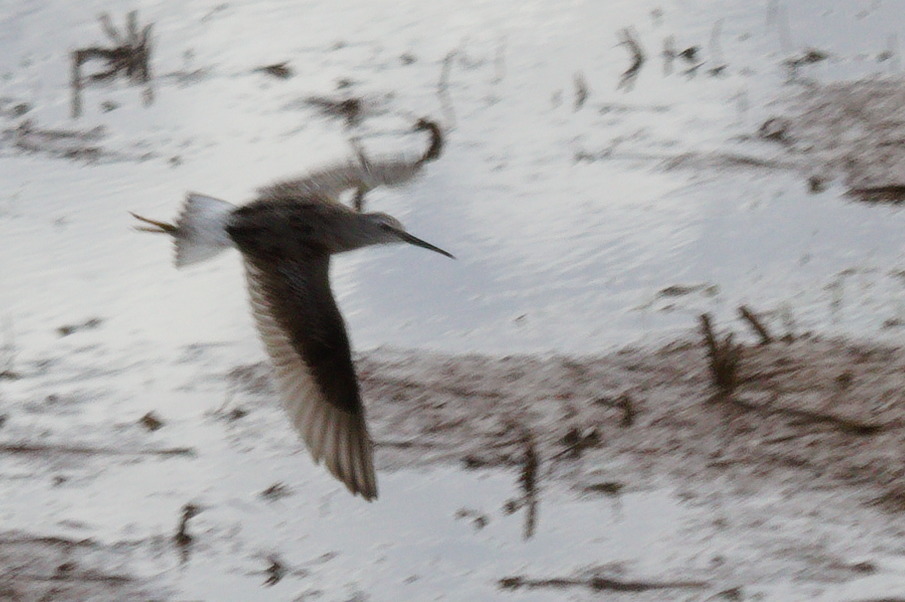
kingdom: Animalia
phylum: Chordata
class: Aves
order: Charadriiformes
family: Scolopacidae
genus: Calidris
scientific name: Calidris himantopus
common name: Stilt sandpiper
